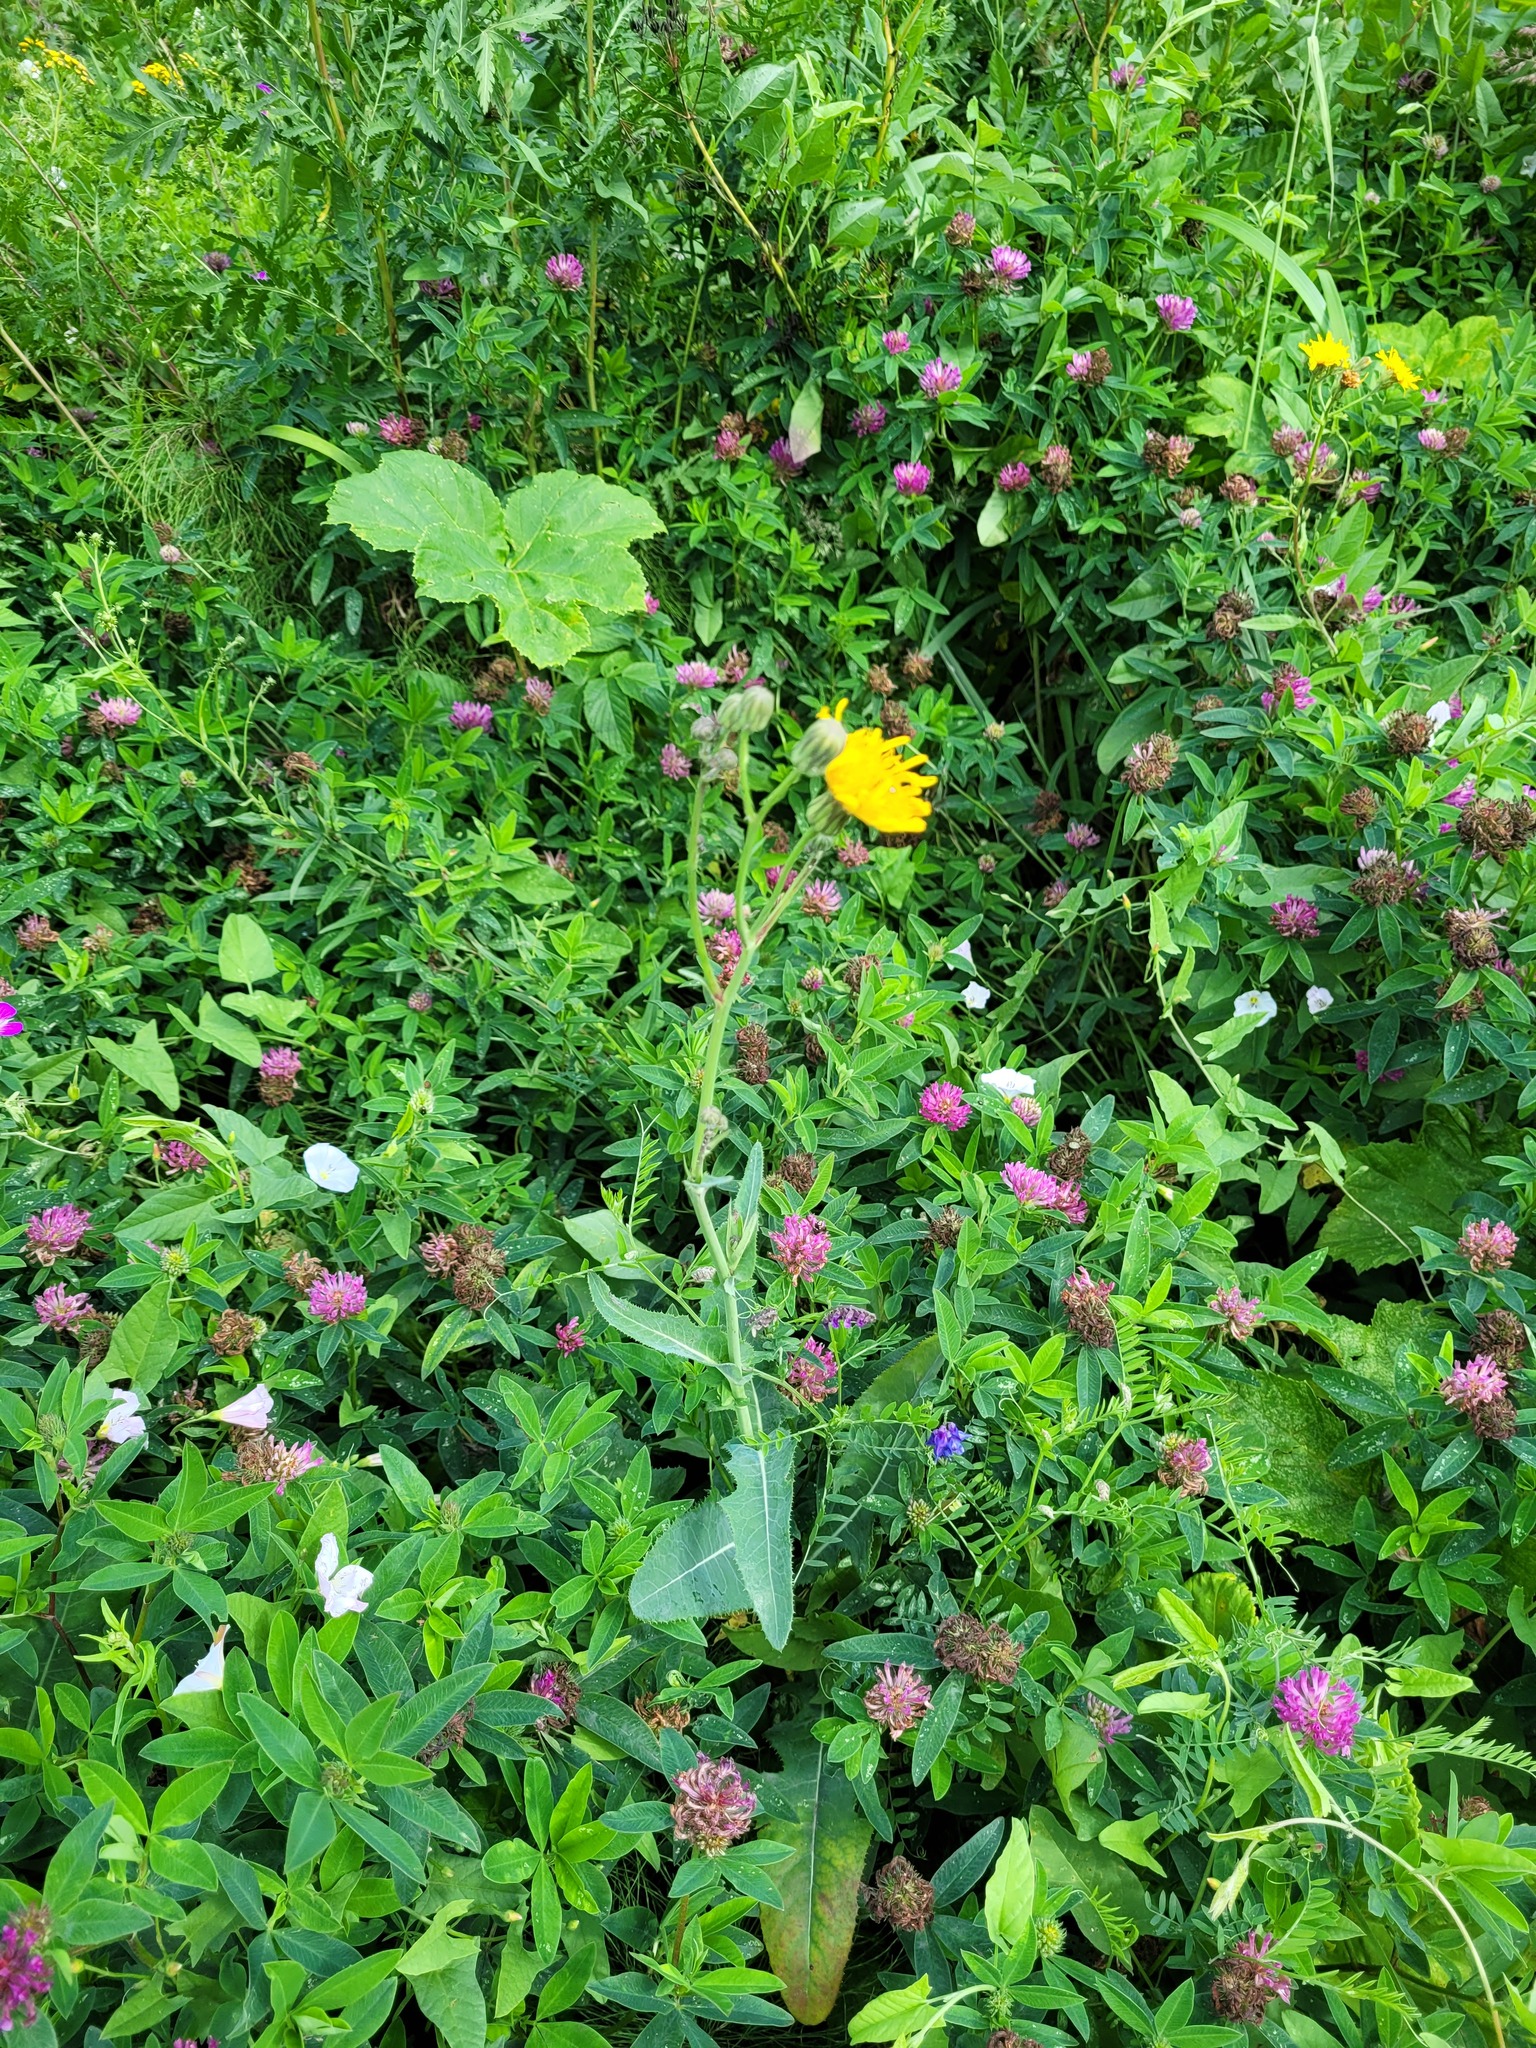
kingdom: Plantae
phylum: Tracheophyta
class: Magnoliopsida
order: Fabales
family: Fabaceae
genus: Trifolium
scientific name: Trifolium medium
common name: Zigzag clover
